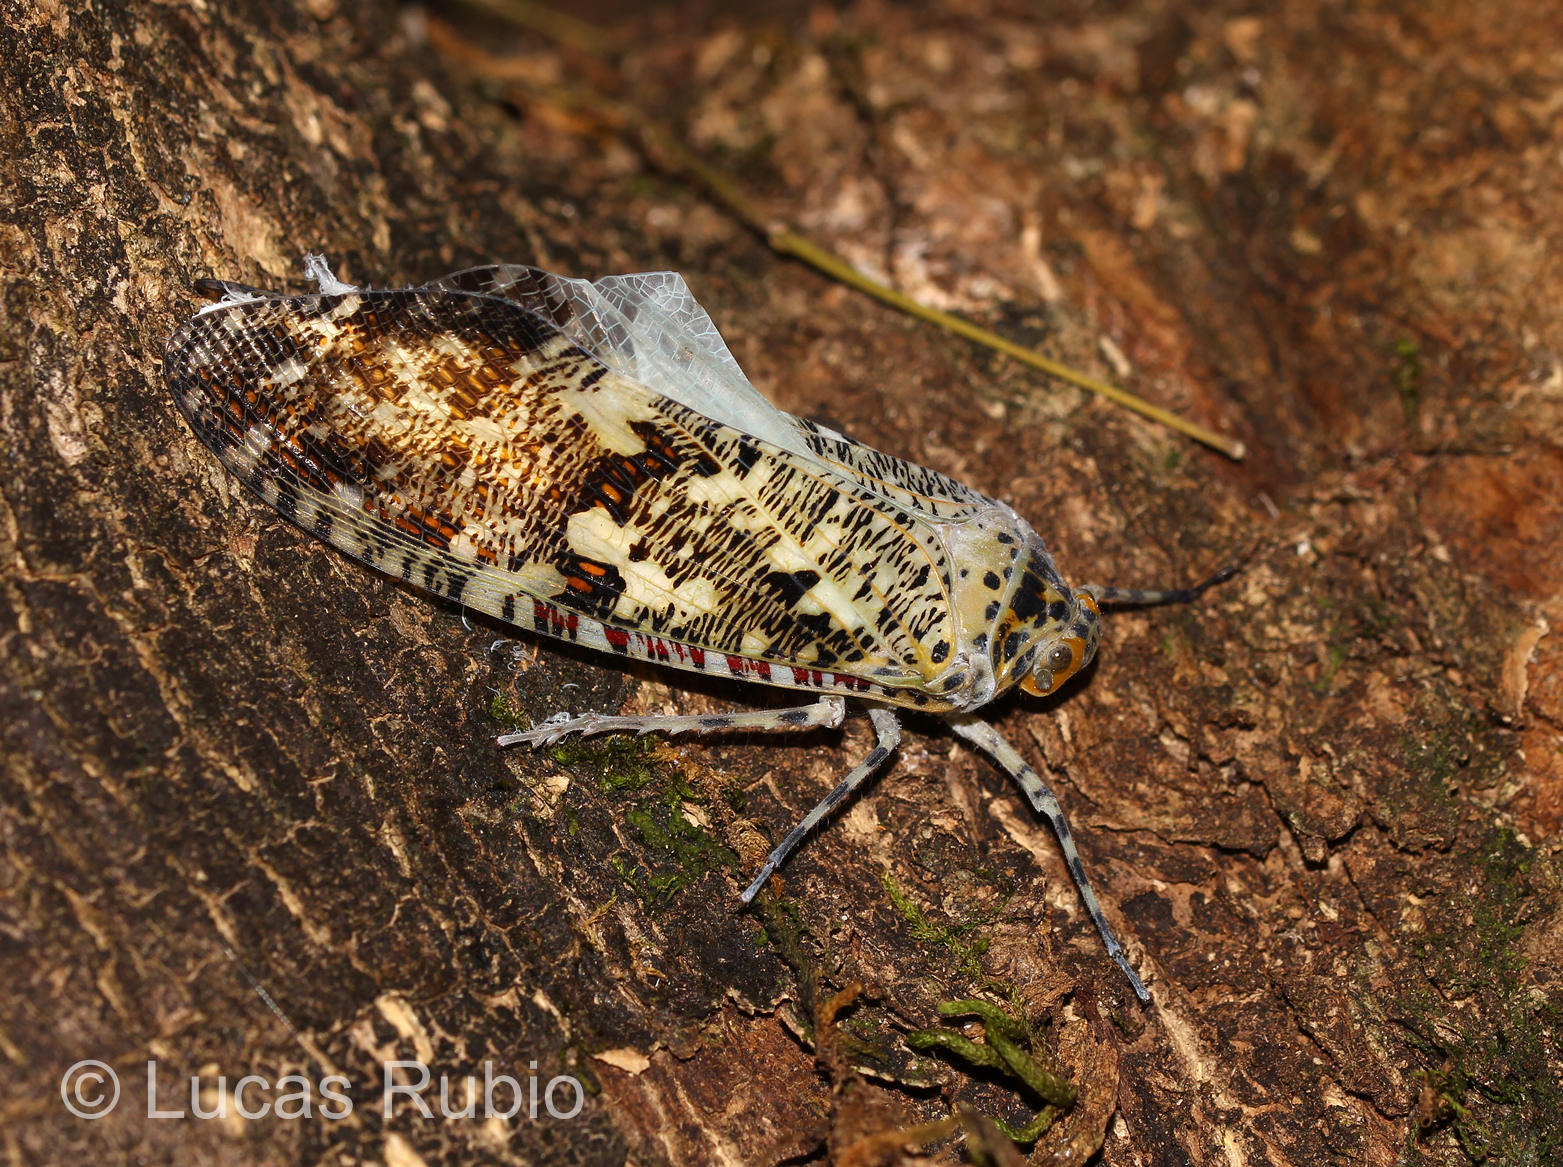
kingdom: Animalia
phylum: Arthropoda
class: Insecta
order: Hemiptera
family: Fulgoridae
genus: Phenax
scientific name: Phenax variegata
